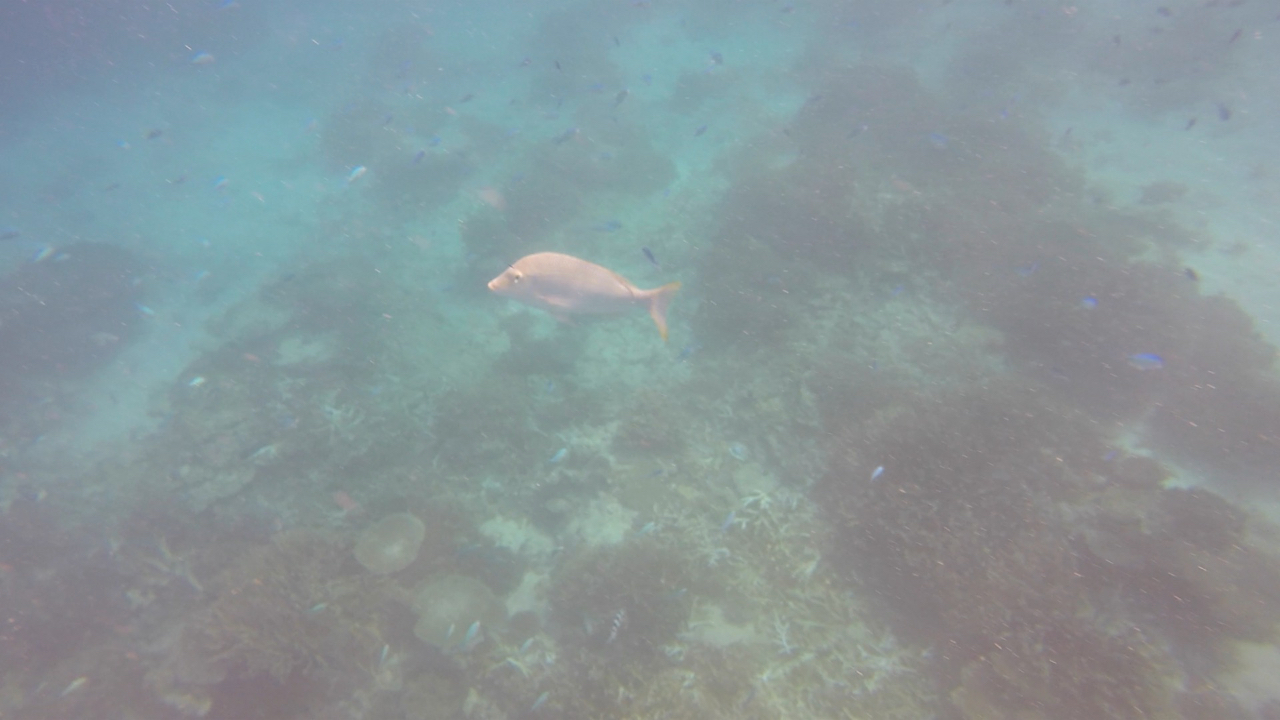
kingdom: Animalia
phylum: Chordata
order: Perciformes
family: Lethrinidae
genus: Lethrinus
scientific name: Lethrinus nebulosus
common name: Spangled emperor
